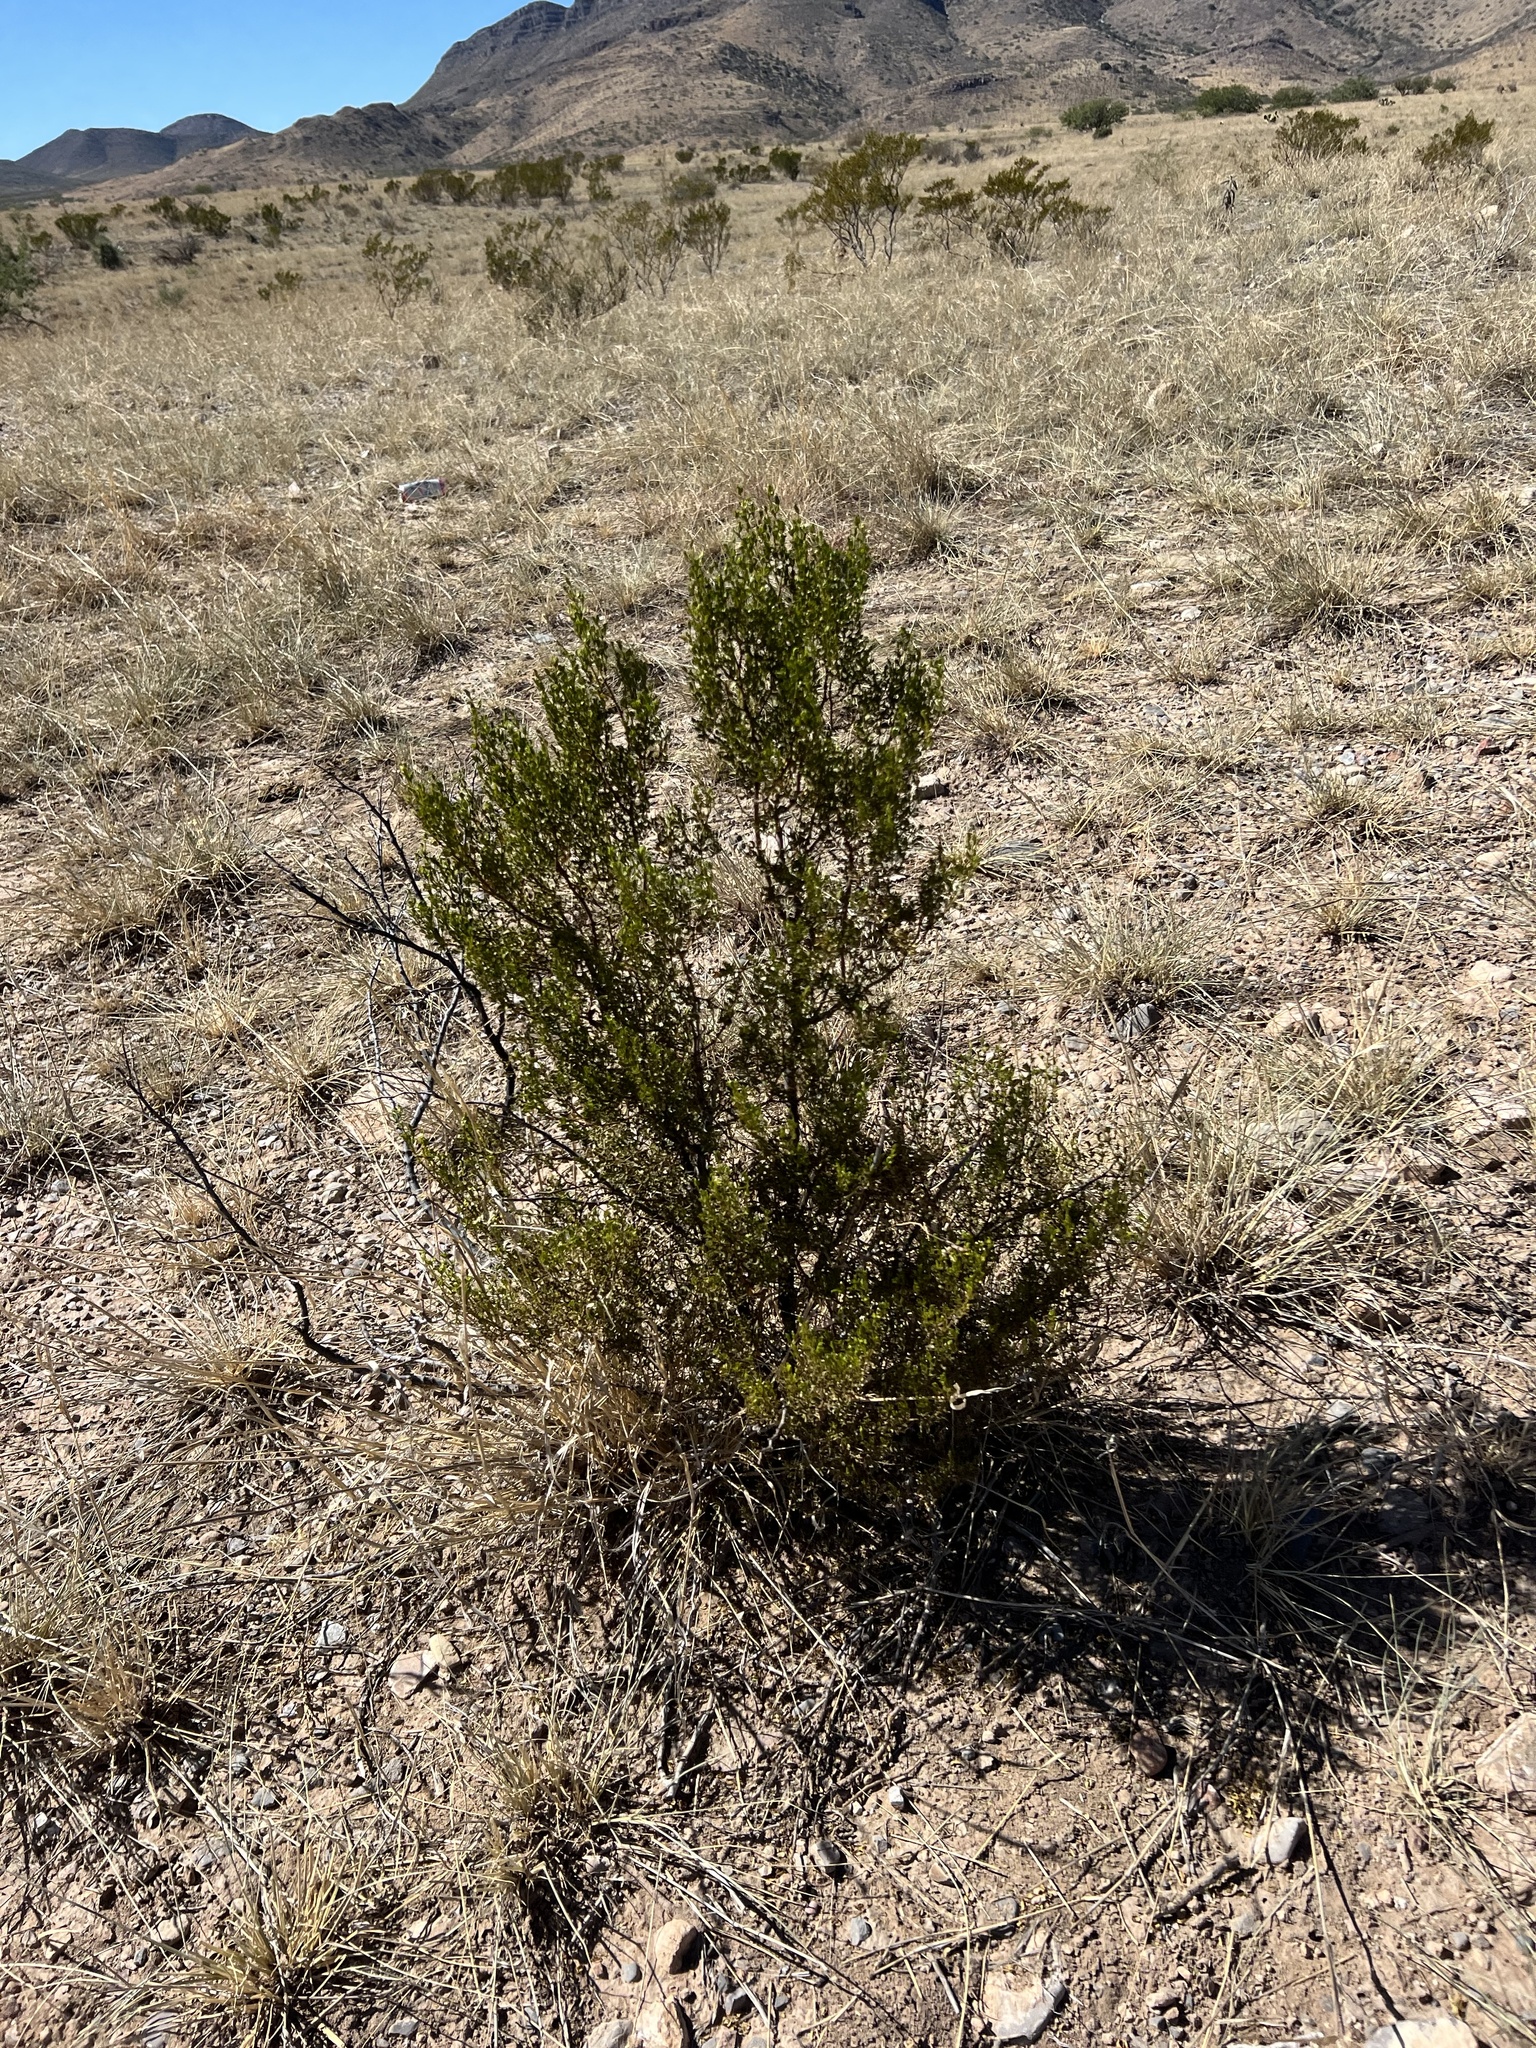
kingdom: Plantae
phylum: Tracheophyta
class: Magnoliopsida
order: Zygophyllales
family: Zygophyllaceae
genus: Larrea
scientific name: Larrea tridentata
